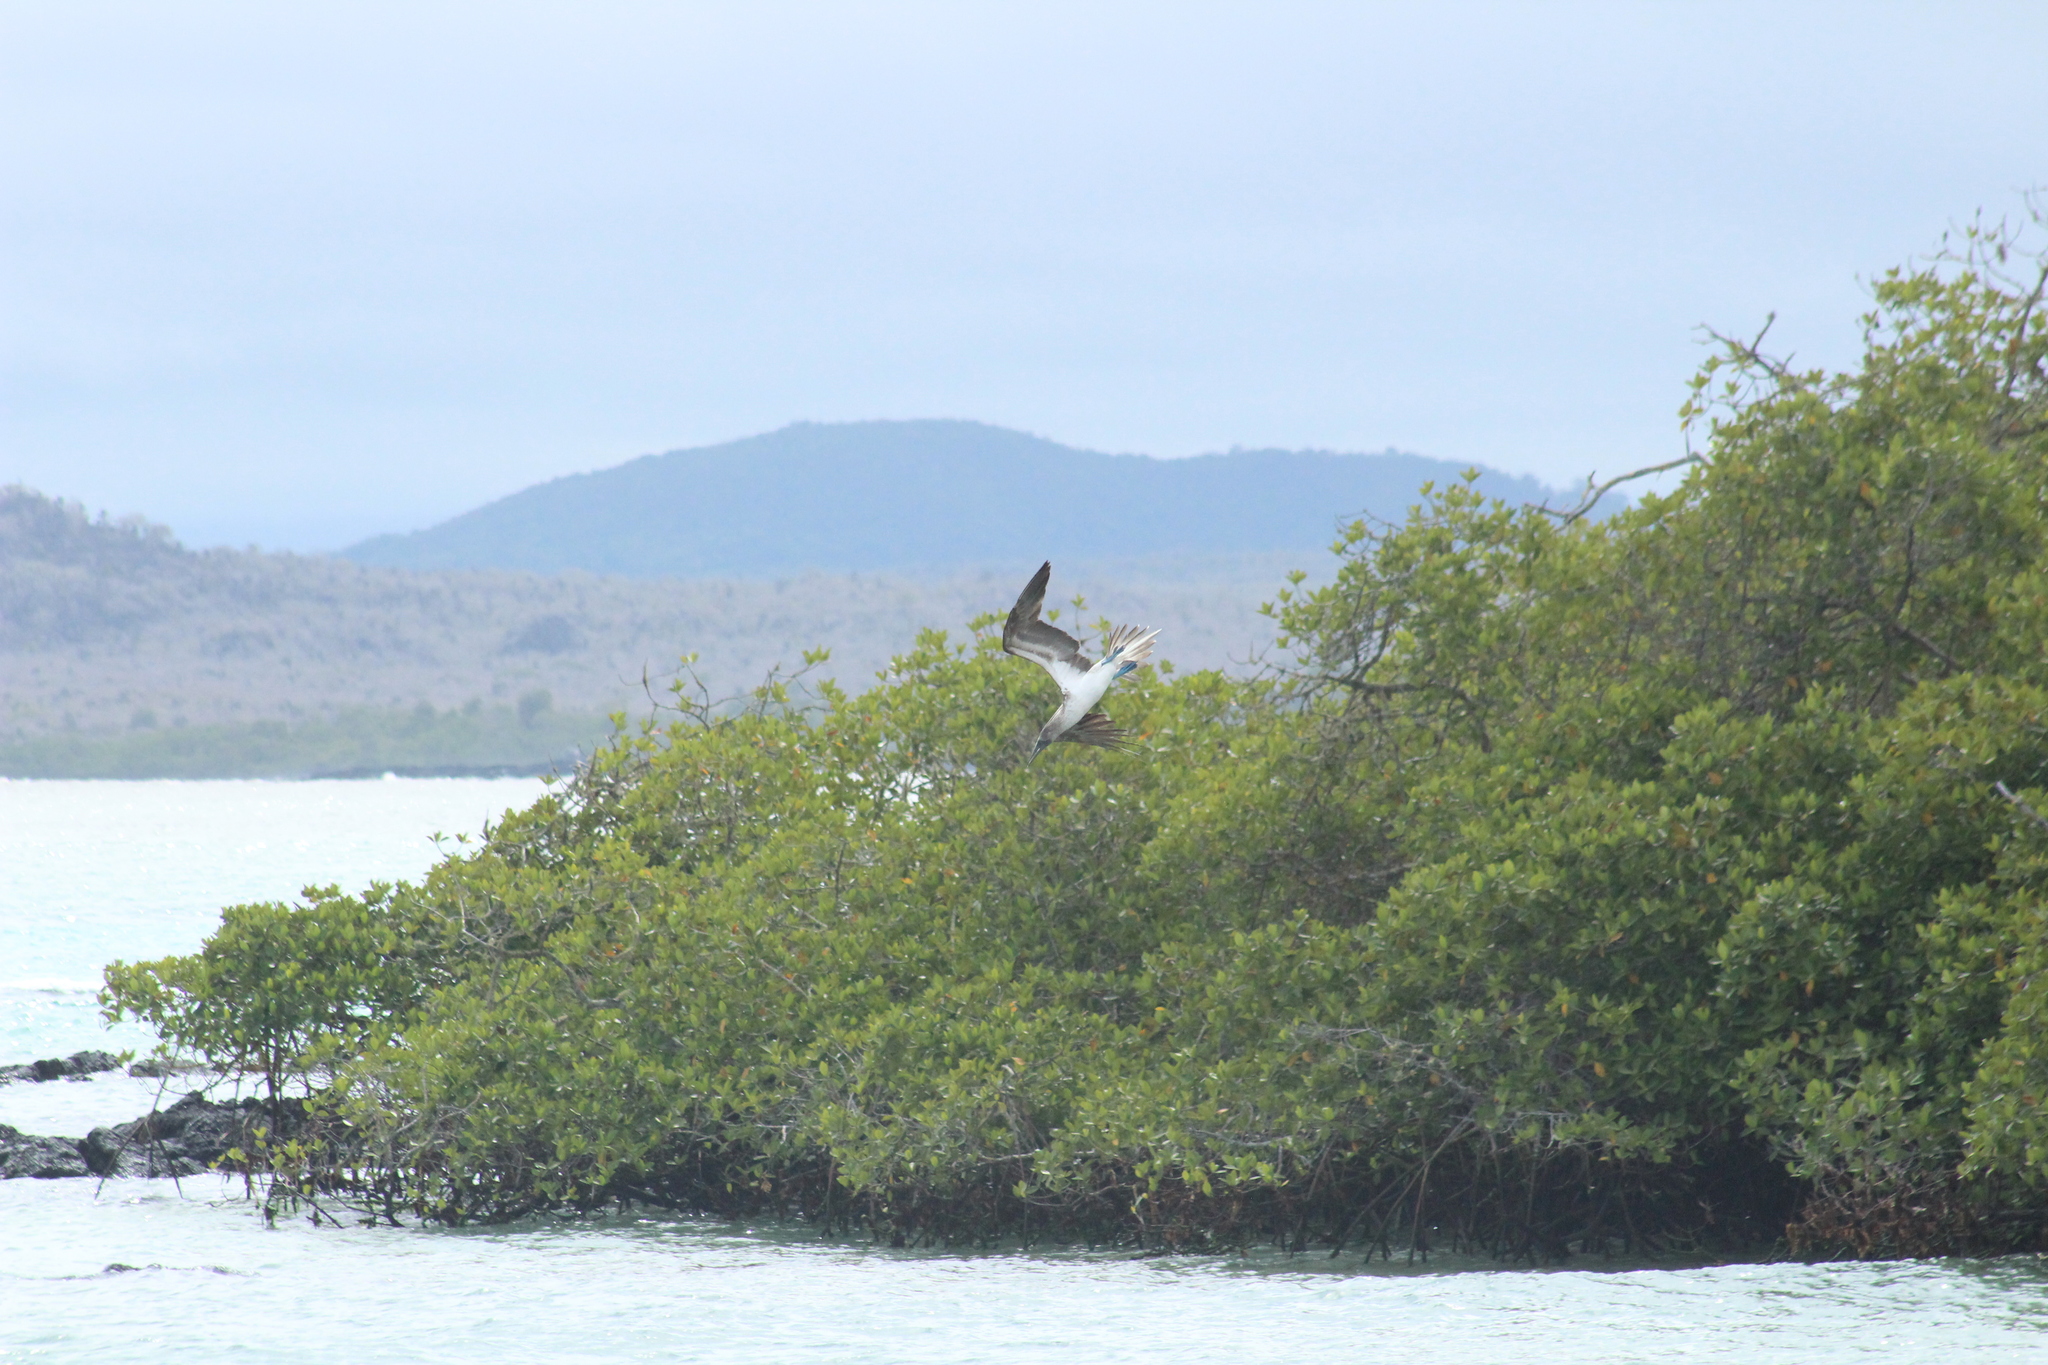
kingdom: Animalia
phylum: Chordata
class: Aves
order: Suliformes
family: Sulidae
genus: Sula
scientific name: Sula nebouxii
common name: Blue-footed booby
